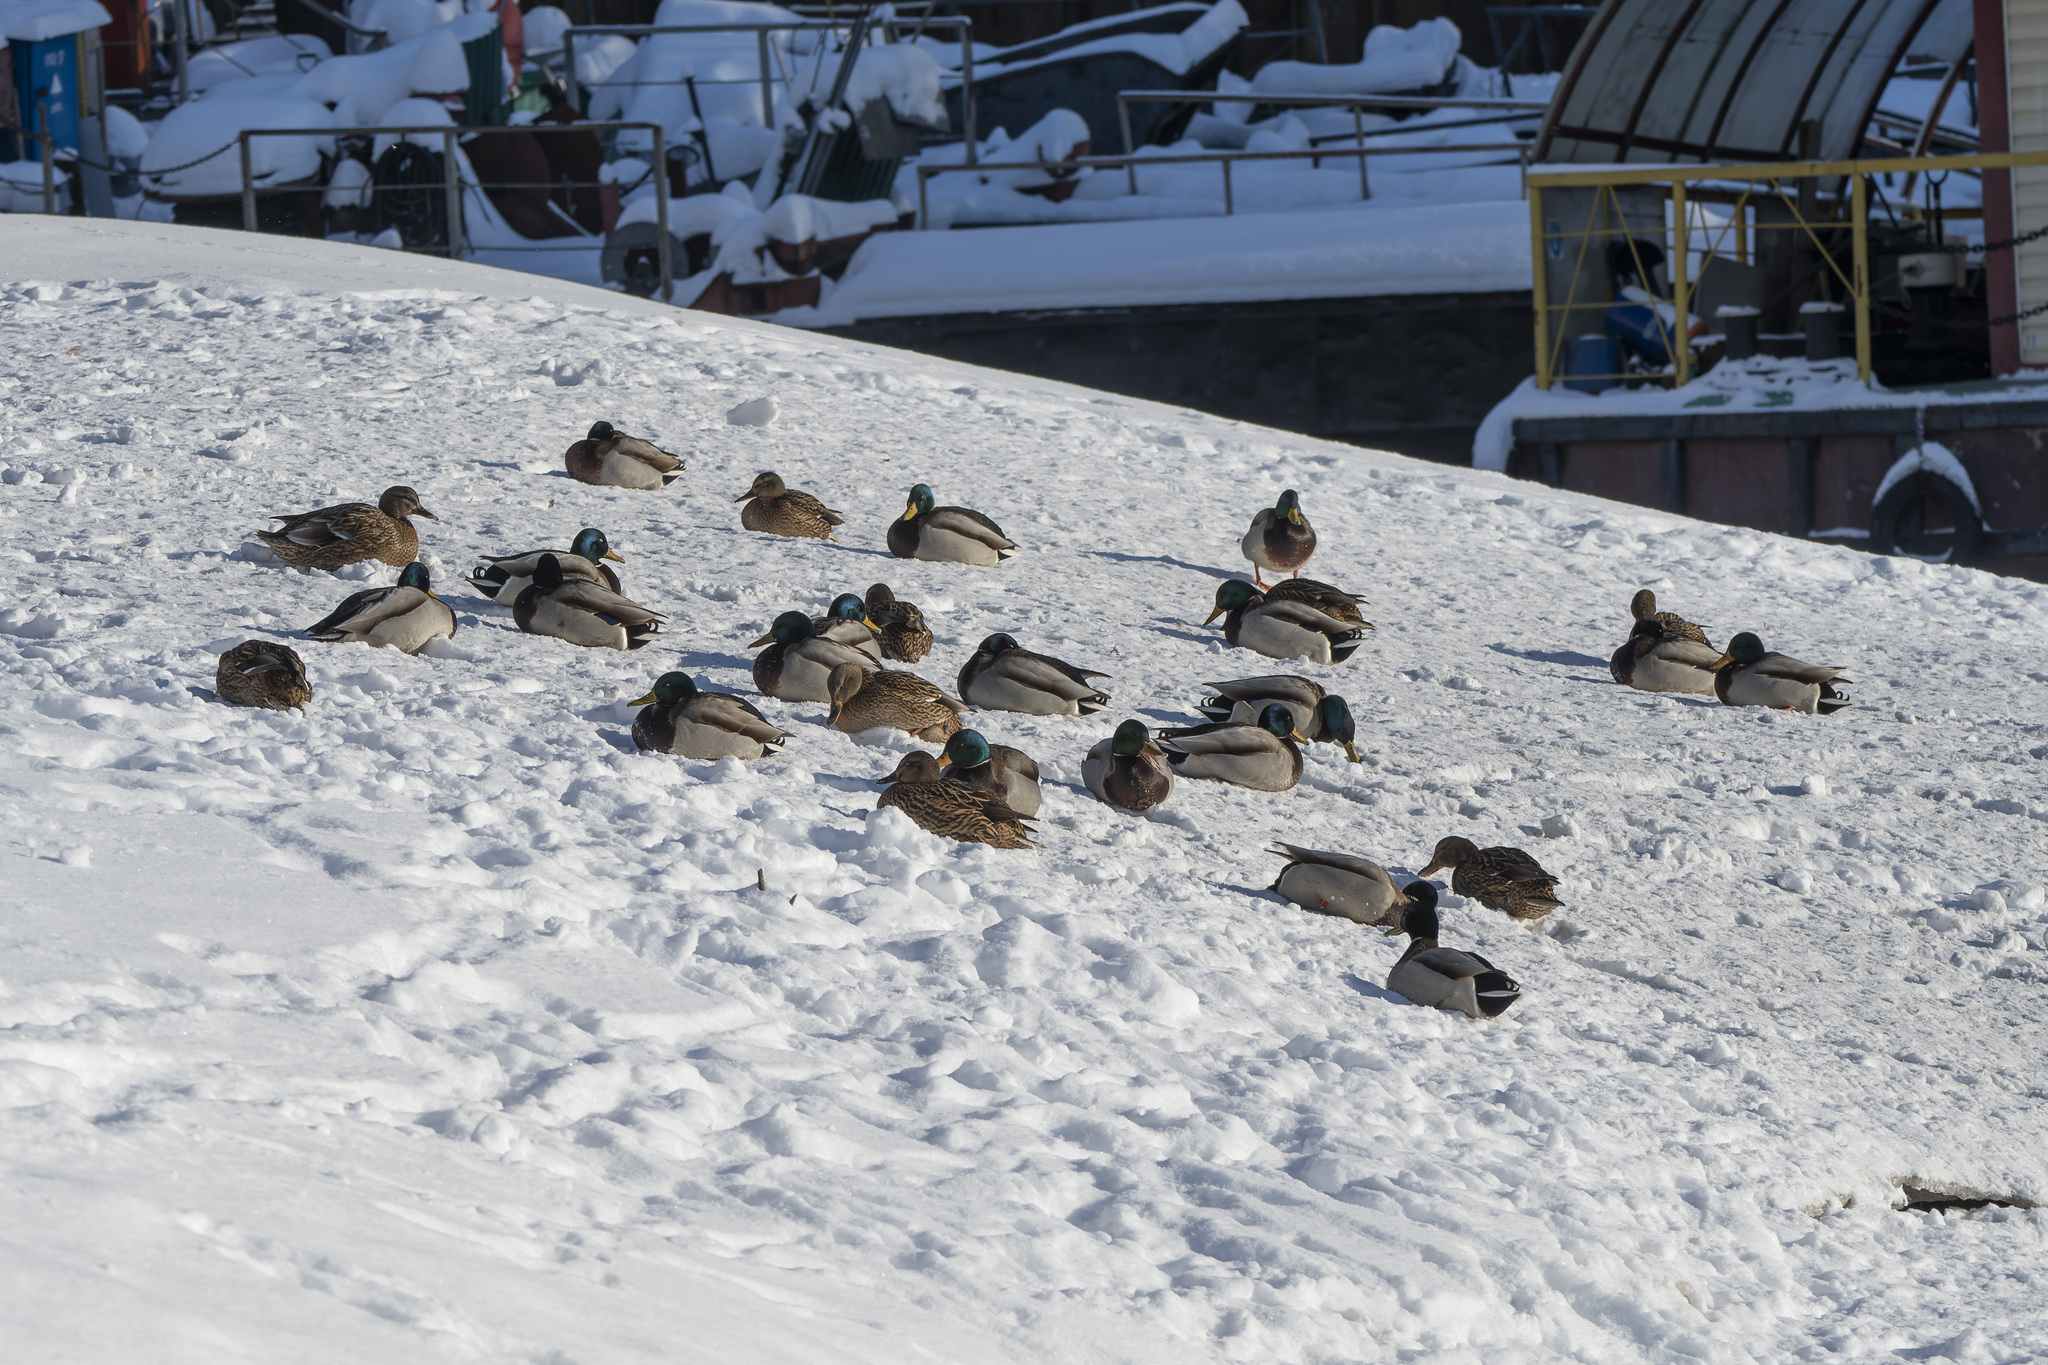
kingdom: Animalia
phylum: Chordata
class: Aves
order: Anseriformes
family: Anatidae
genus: Anas
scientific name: Anas platyrhynchos
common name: Mallard
